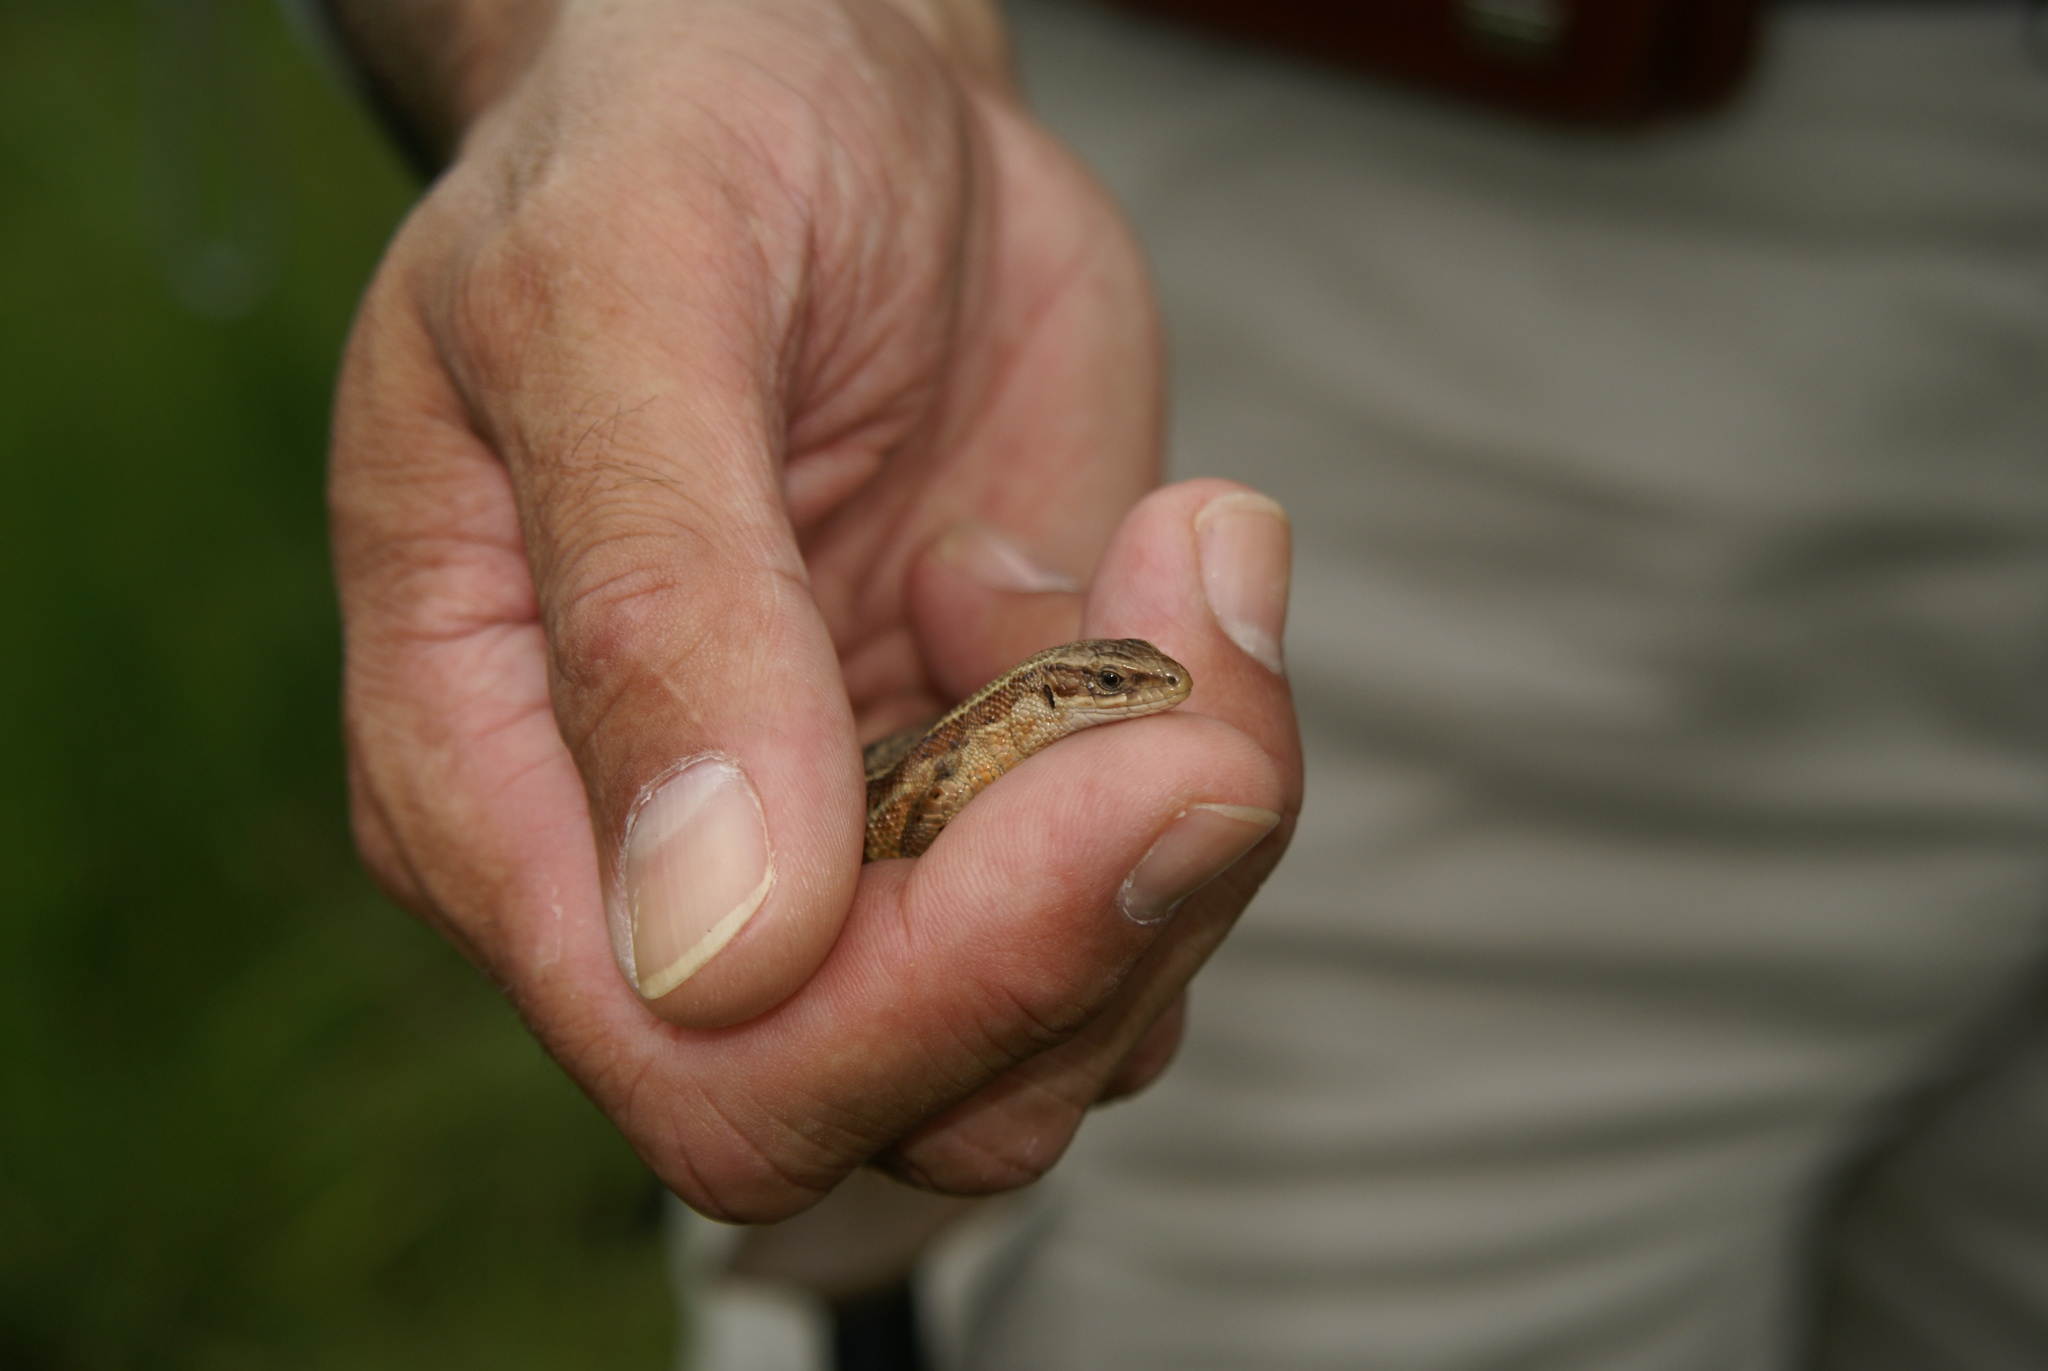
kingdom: Animalia
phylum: Chordata
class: Squamata
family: Lacertidae
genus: Zootoca
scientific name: Zootoca vivipara
